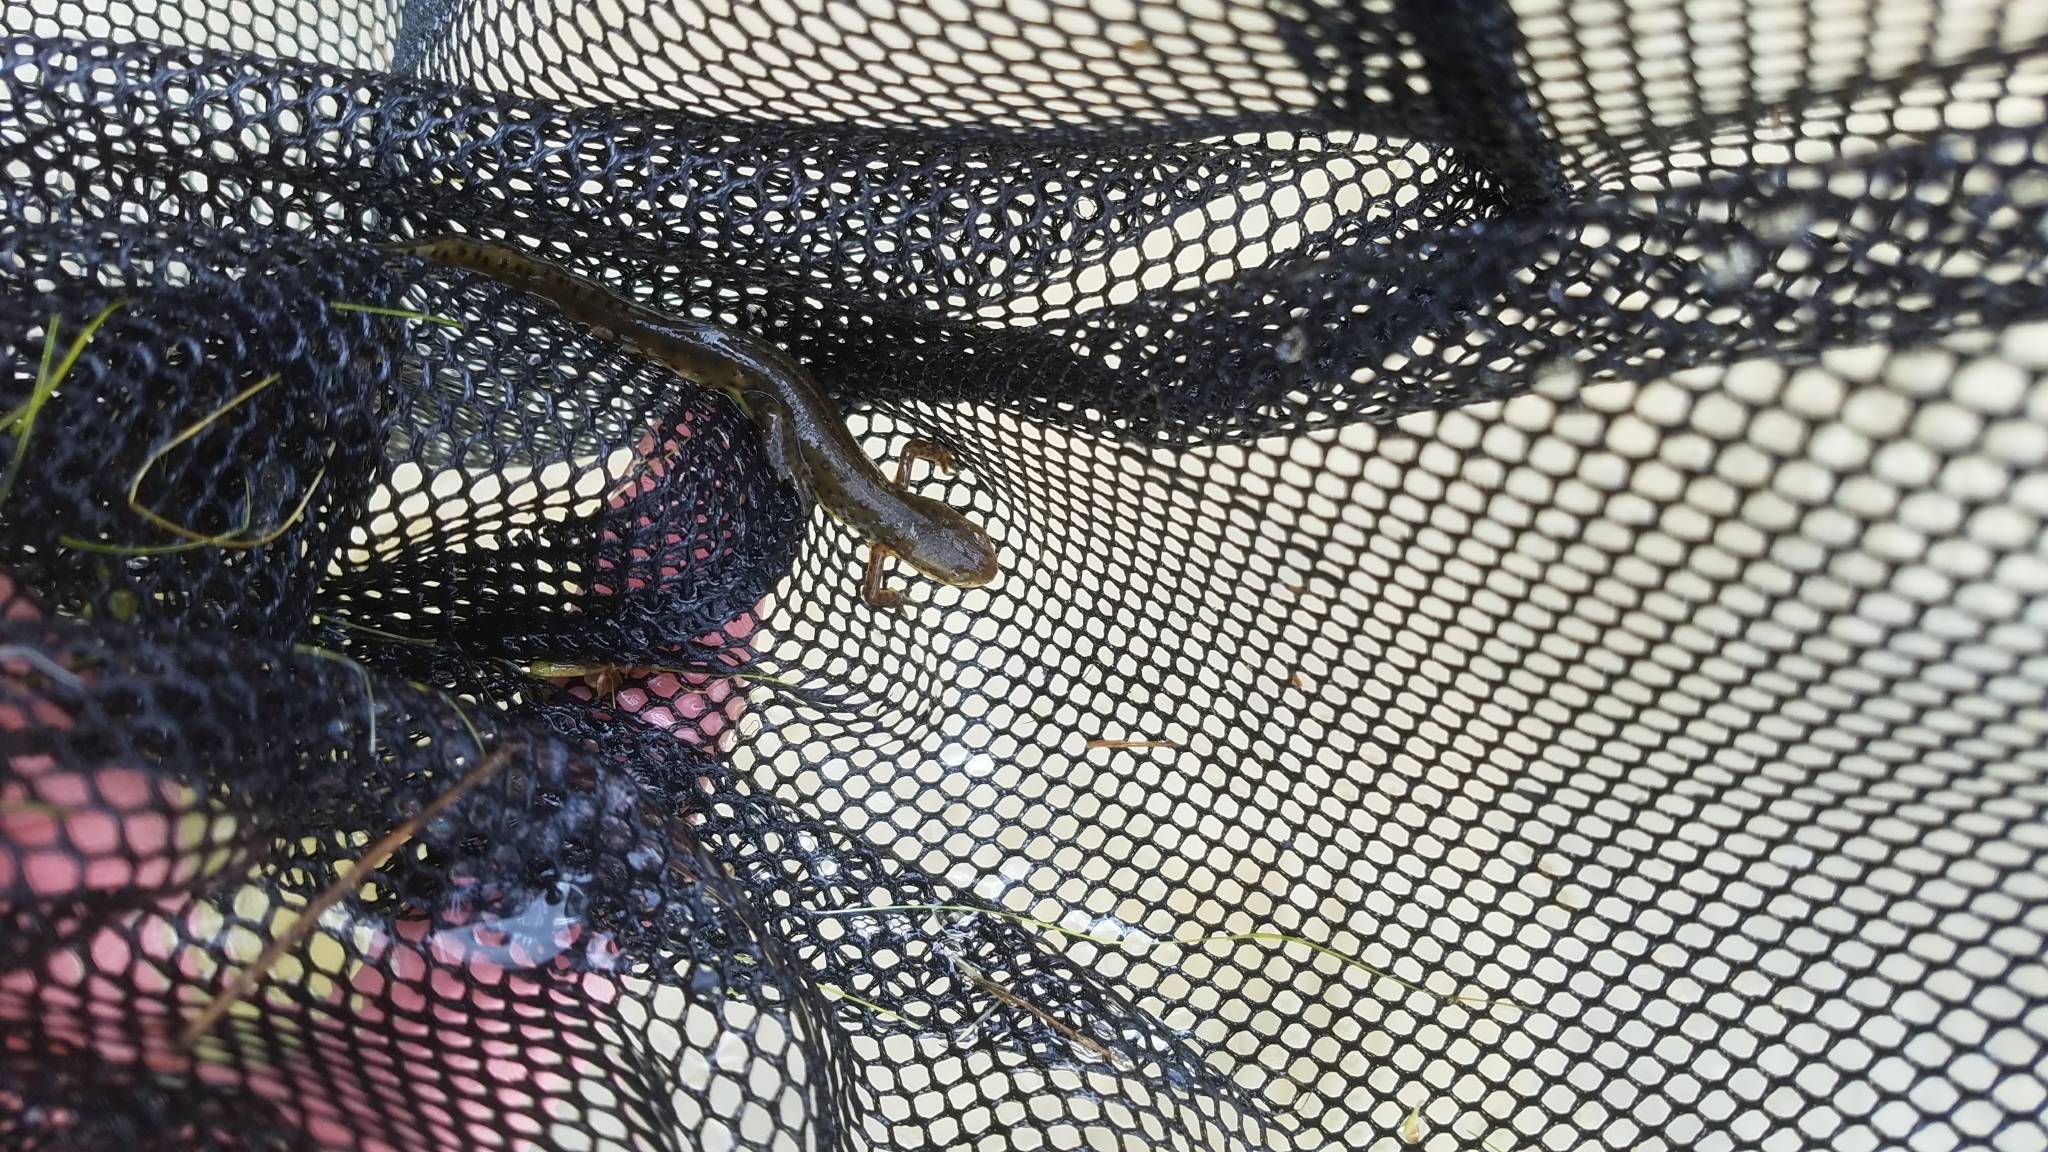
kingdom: Animalia
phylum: Chordata
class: Amphibia
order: Caudata
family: Salamandridae
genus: Notophthalmus
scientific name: Notophthalmus viridescens
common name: Eastern newt
